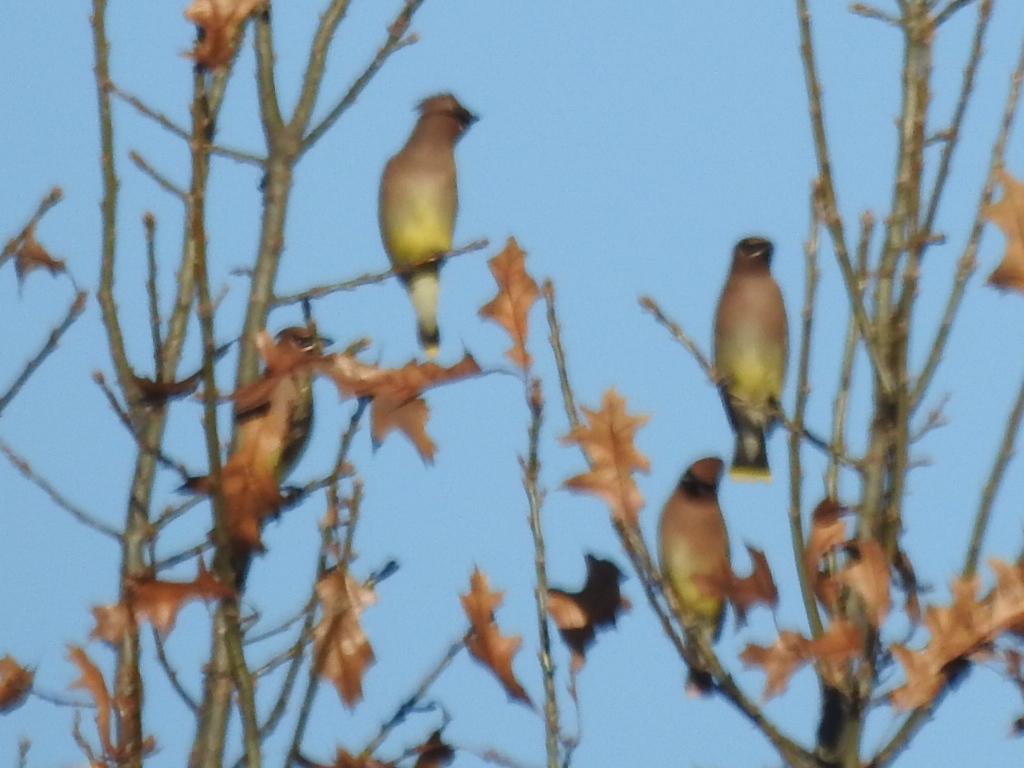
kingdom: Animalia
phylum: Chordata
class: Aves
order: Passeriformes
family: Bombycillidae
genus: Bombycilla
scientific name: Bombycilla cedrorum
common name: Cedar waxwing
